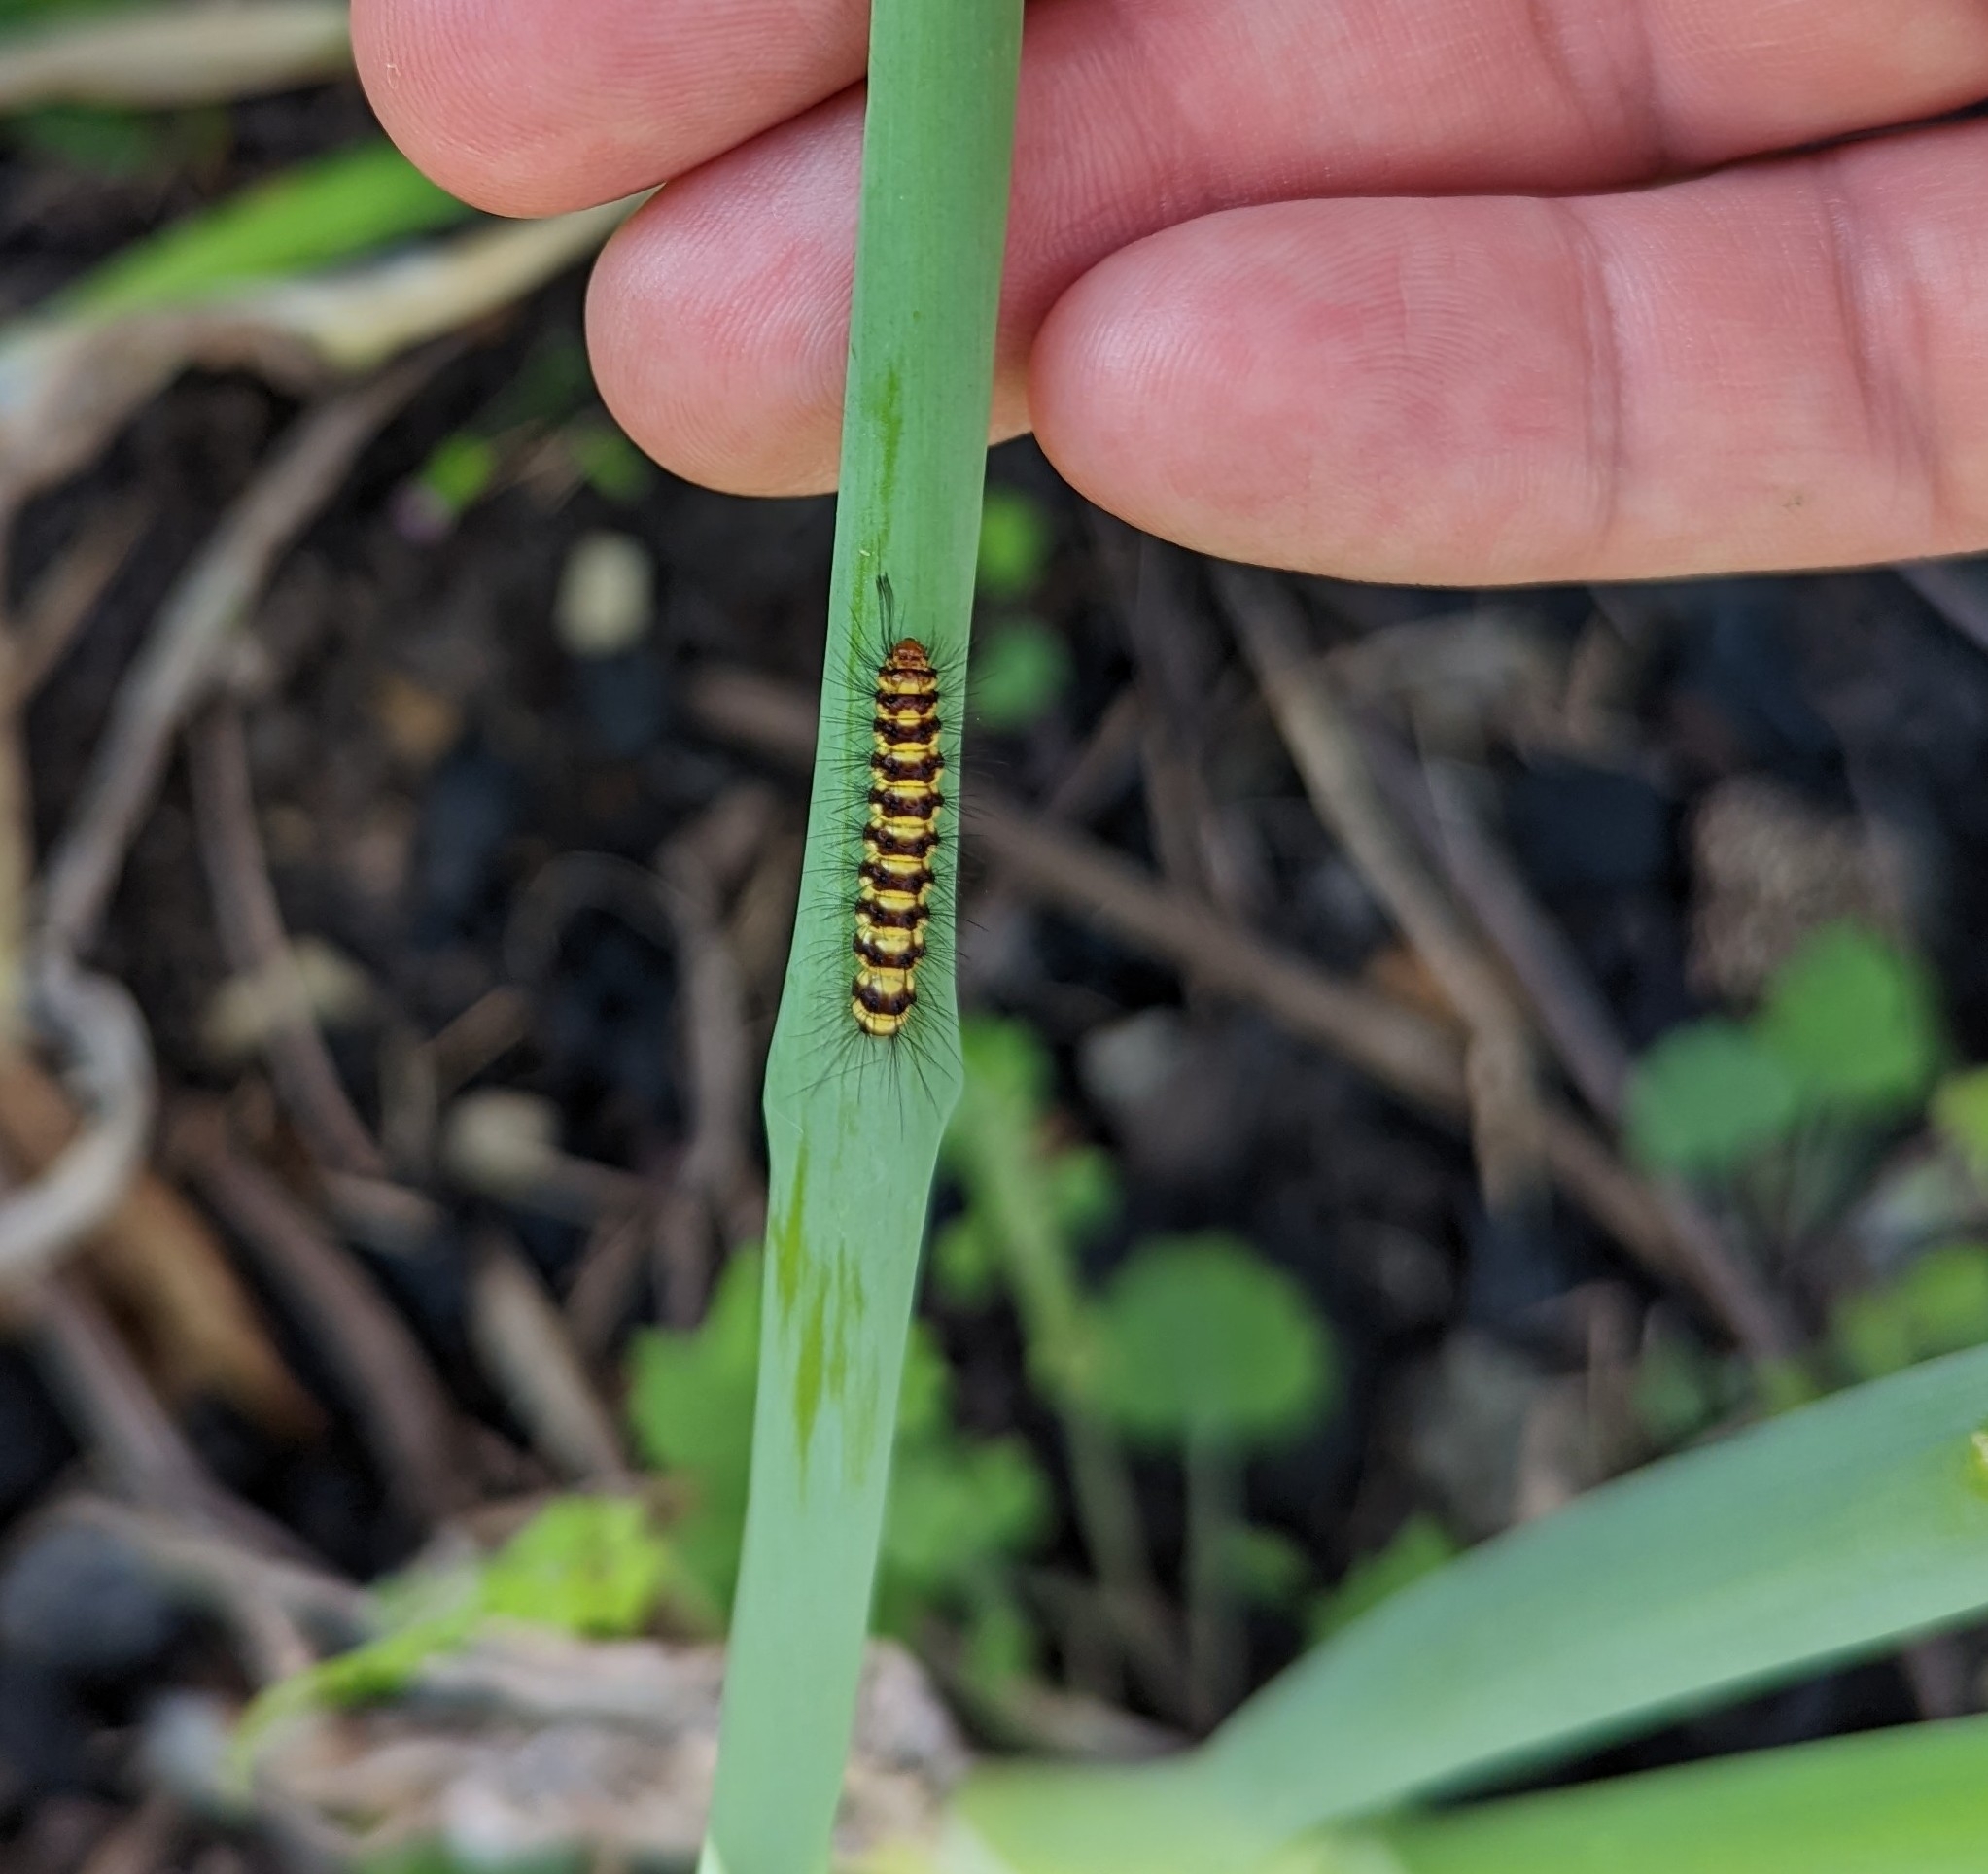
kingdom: Animalia
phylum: Arthropoda
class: Insecta
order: Lepidoptera
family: Erebidae
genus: Nyctemera
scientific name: Nyctemera baulus
